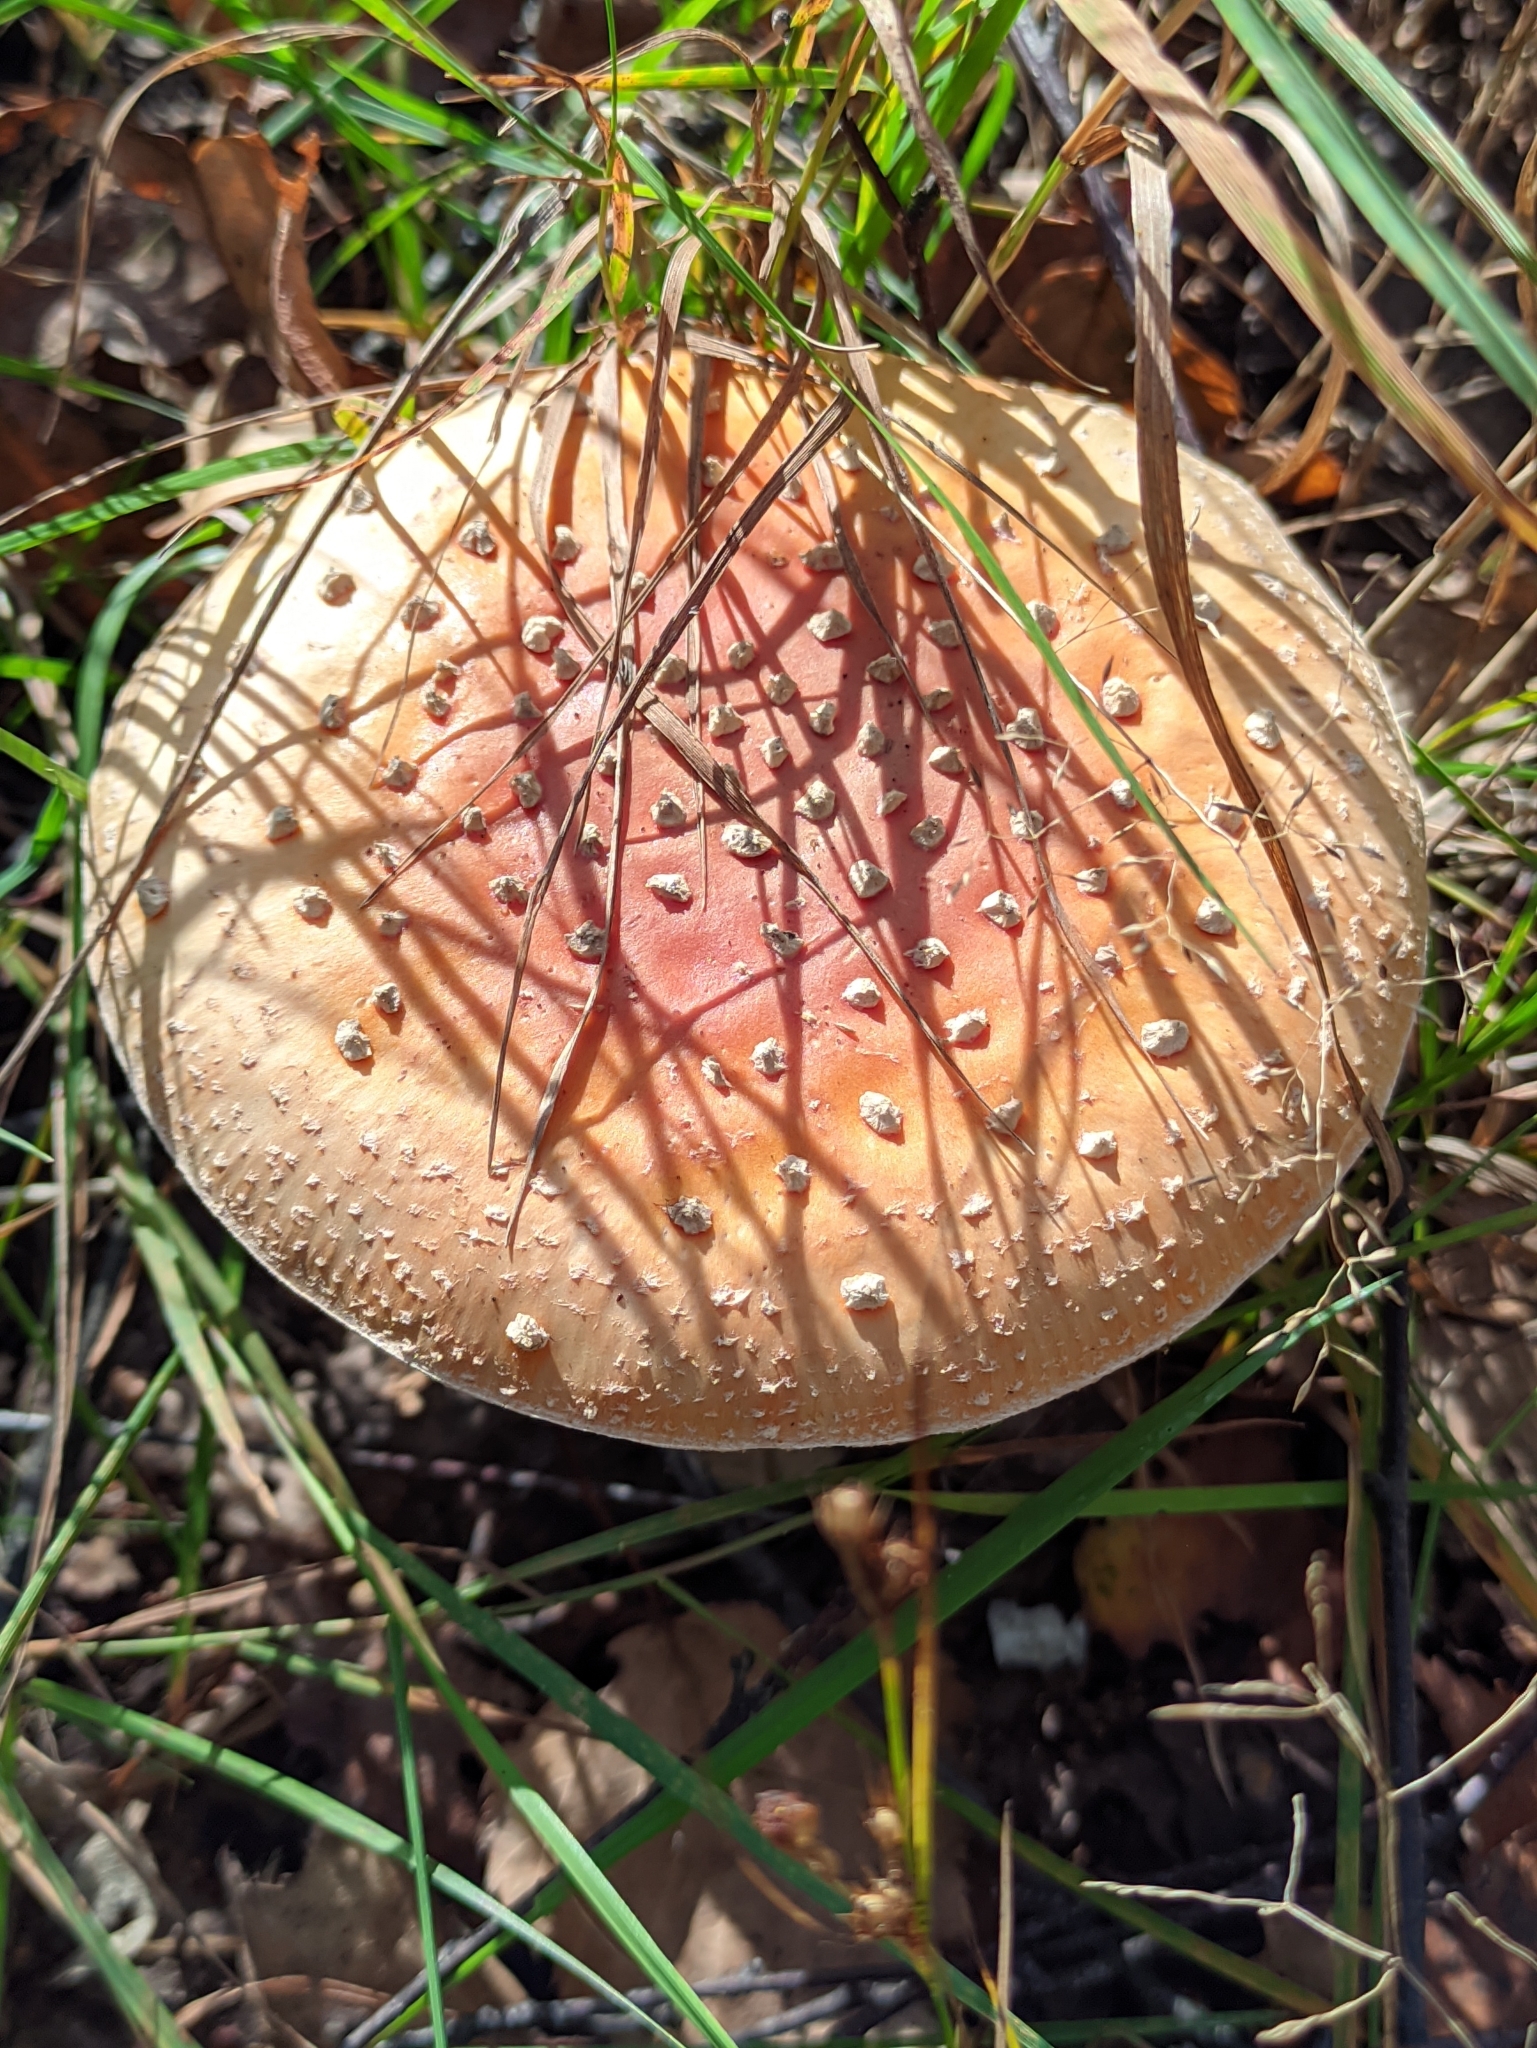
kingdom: Fungi
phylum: Basidiomycota
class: Agaricomycetes
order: Agaricales
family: Amanitaceae
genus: Amanita
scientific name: Amanita muscaria
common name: Fly agaric
